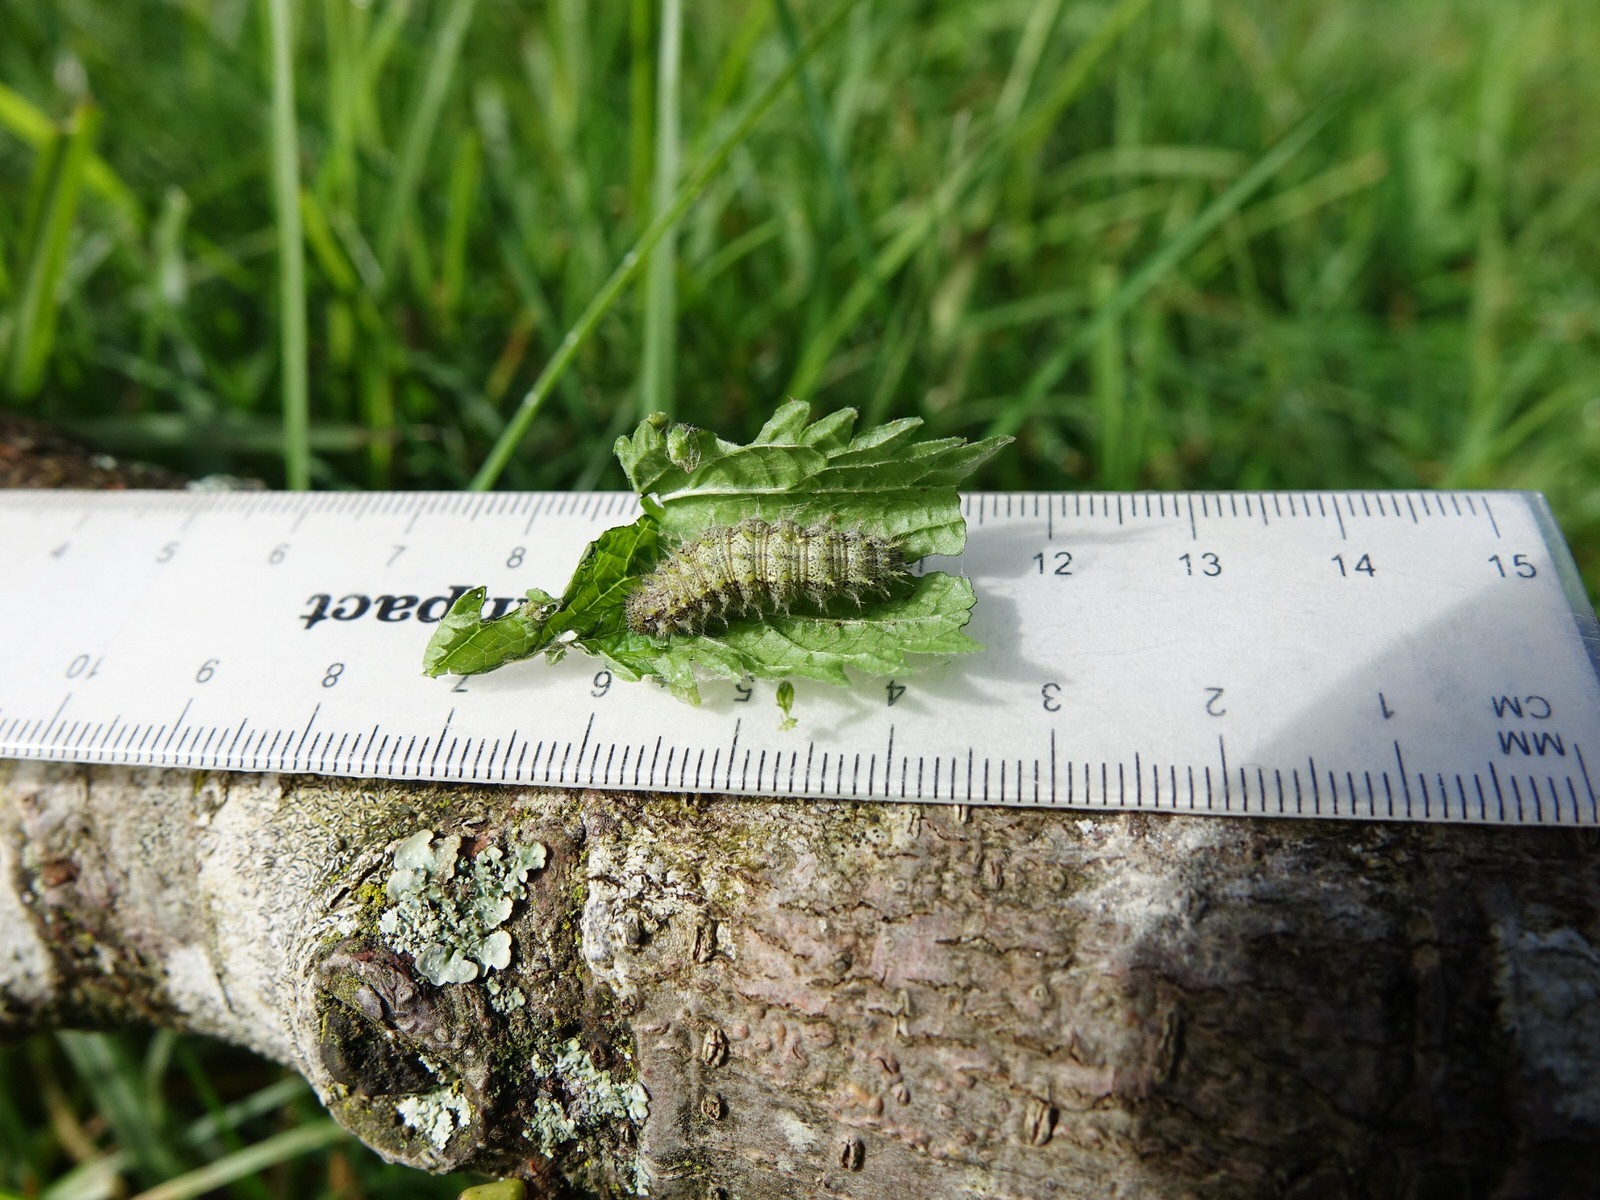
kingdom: Animalia
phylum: Arthropoda
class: Insecta
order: Lepidoptera
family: Nymphalidae
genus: Vanessa
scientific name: Vanessa itea
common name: Yellow admiral
